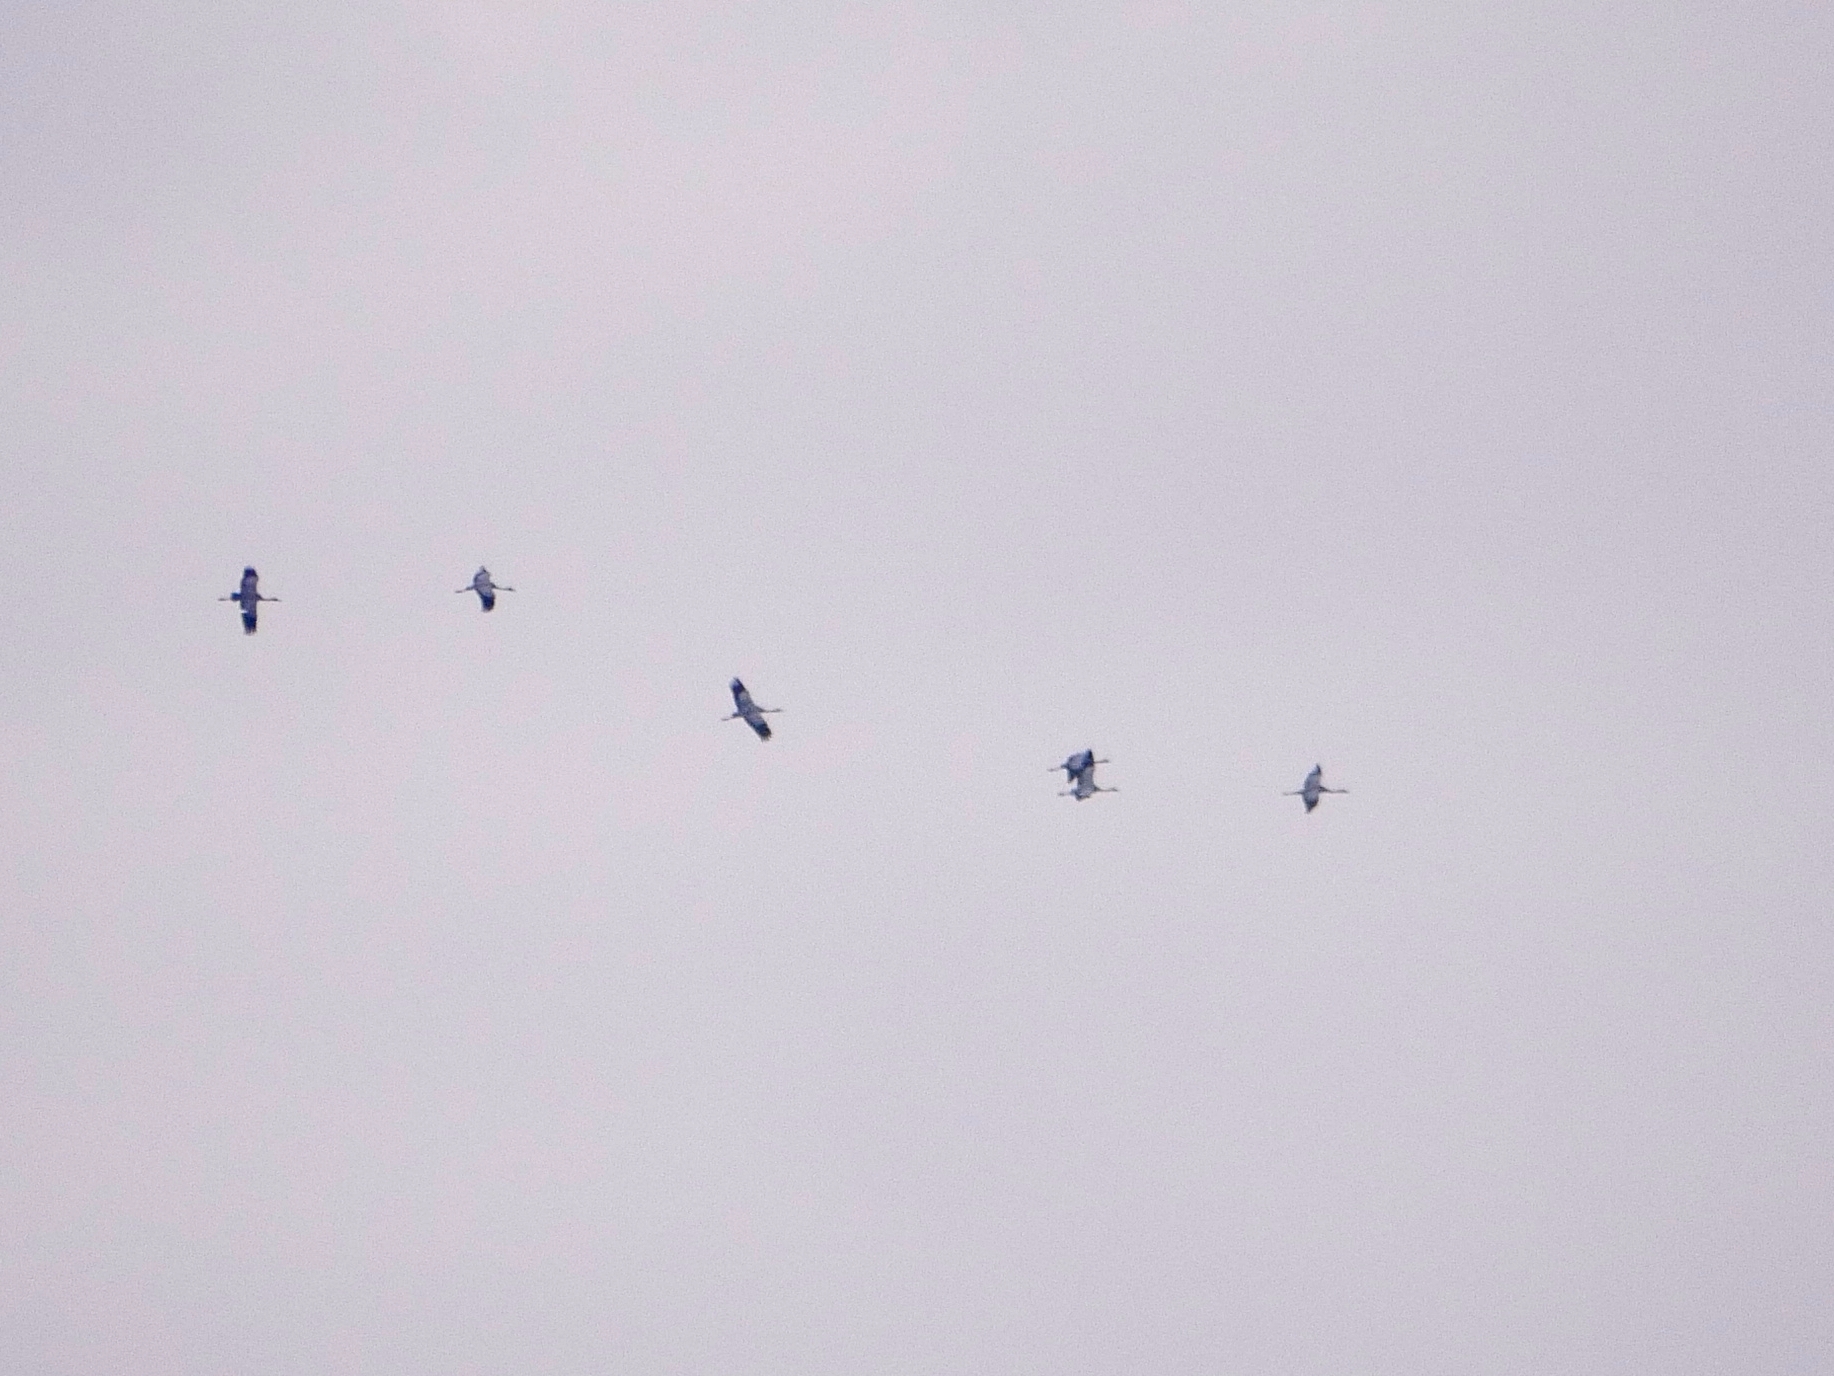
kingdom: Animalia
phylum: Chordata
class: Aves
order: Gruiformes
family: Gruidae
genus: Grus
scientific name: Grus grus
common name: Common crane
